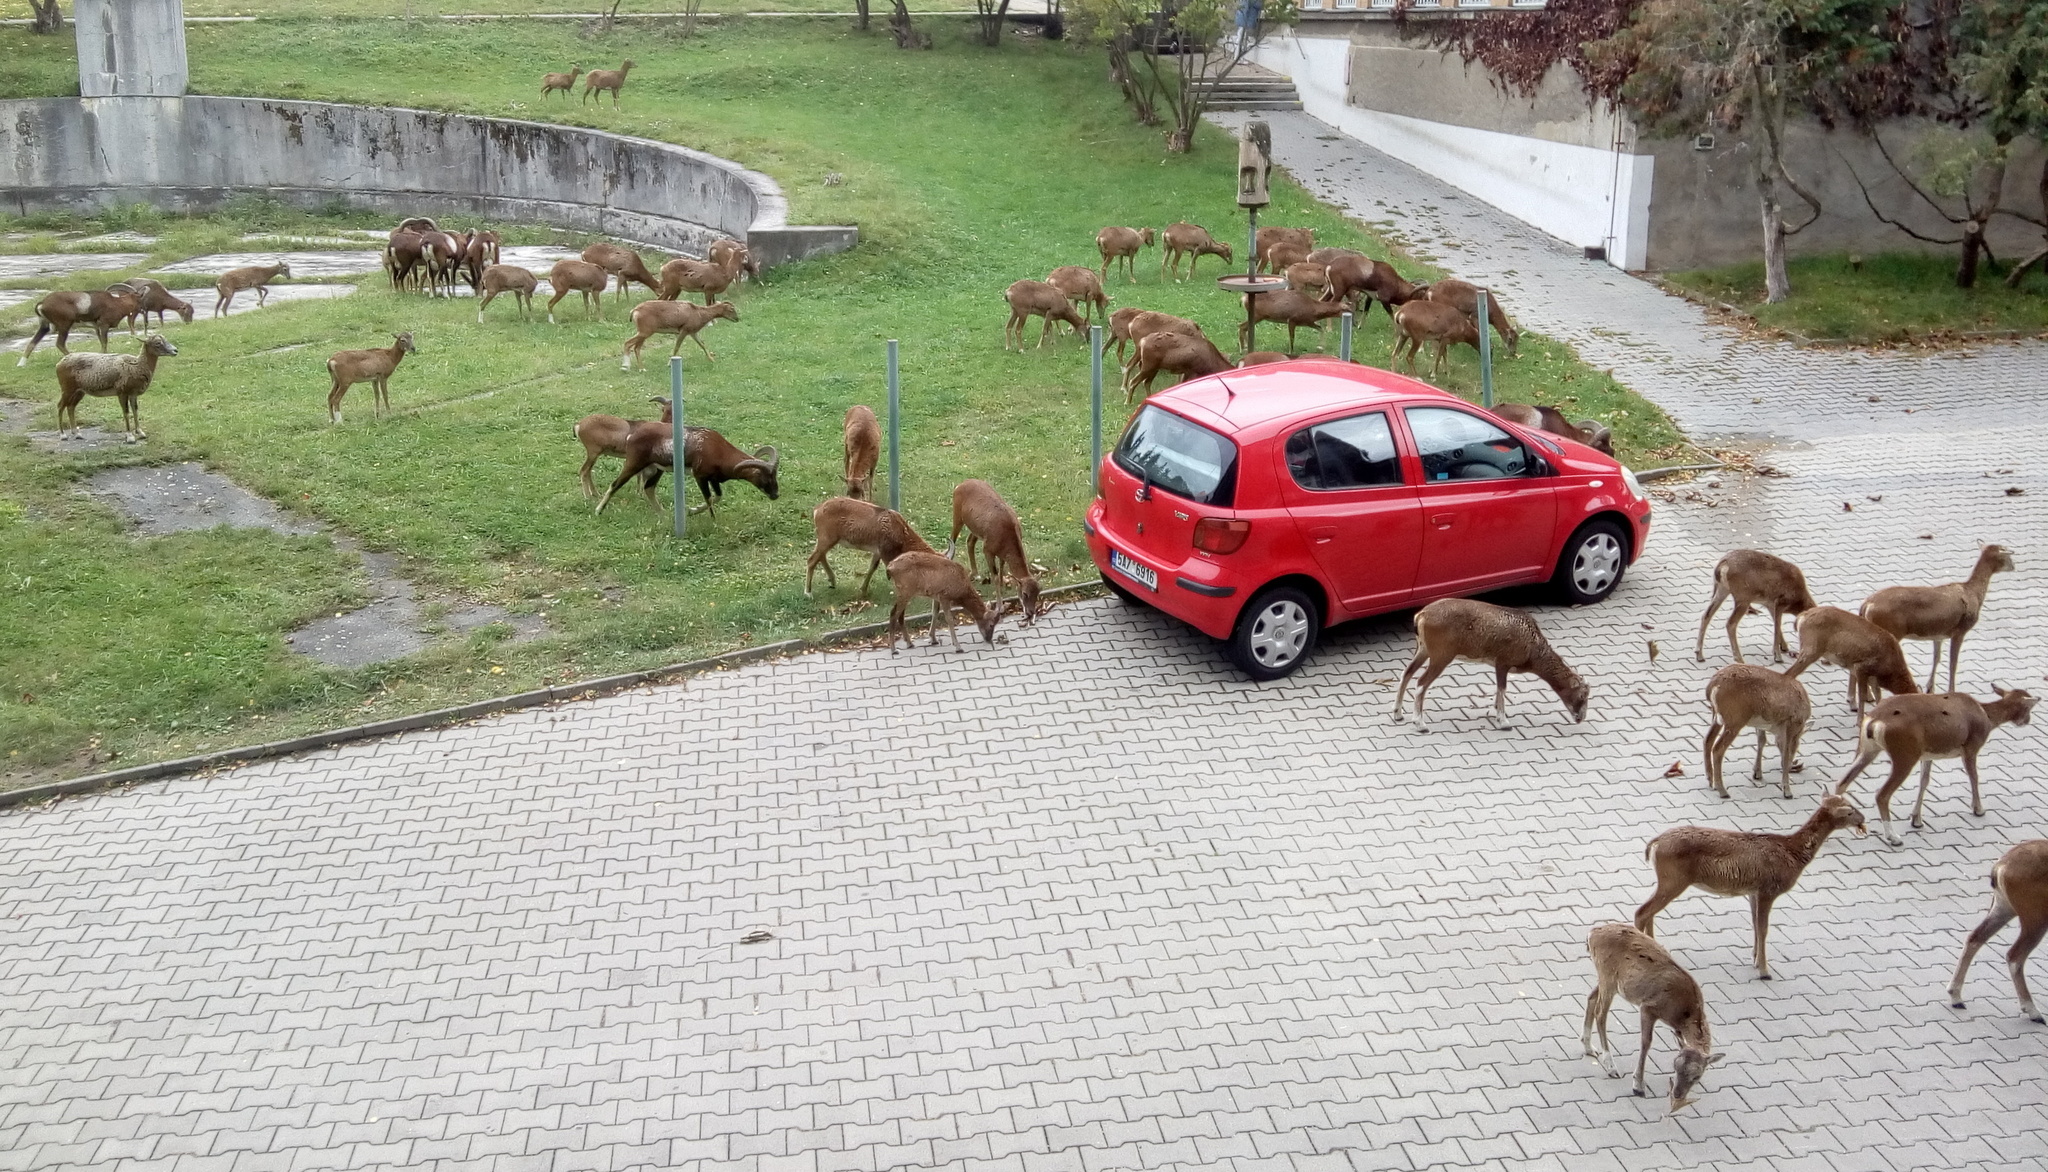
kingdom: Animalia
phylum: Chordata
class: Mammalia
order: Artiodactyla
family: Bovidae
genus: Ovis
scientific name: Ovis aries
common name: Domestic sheep
